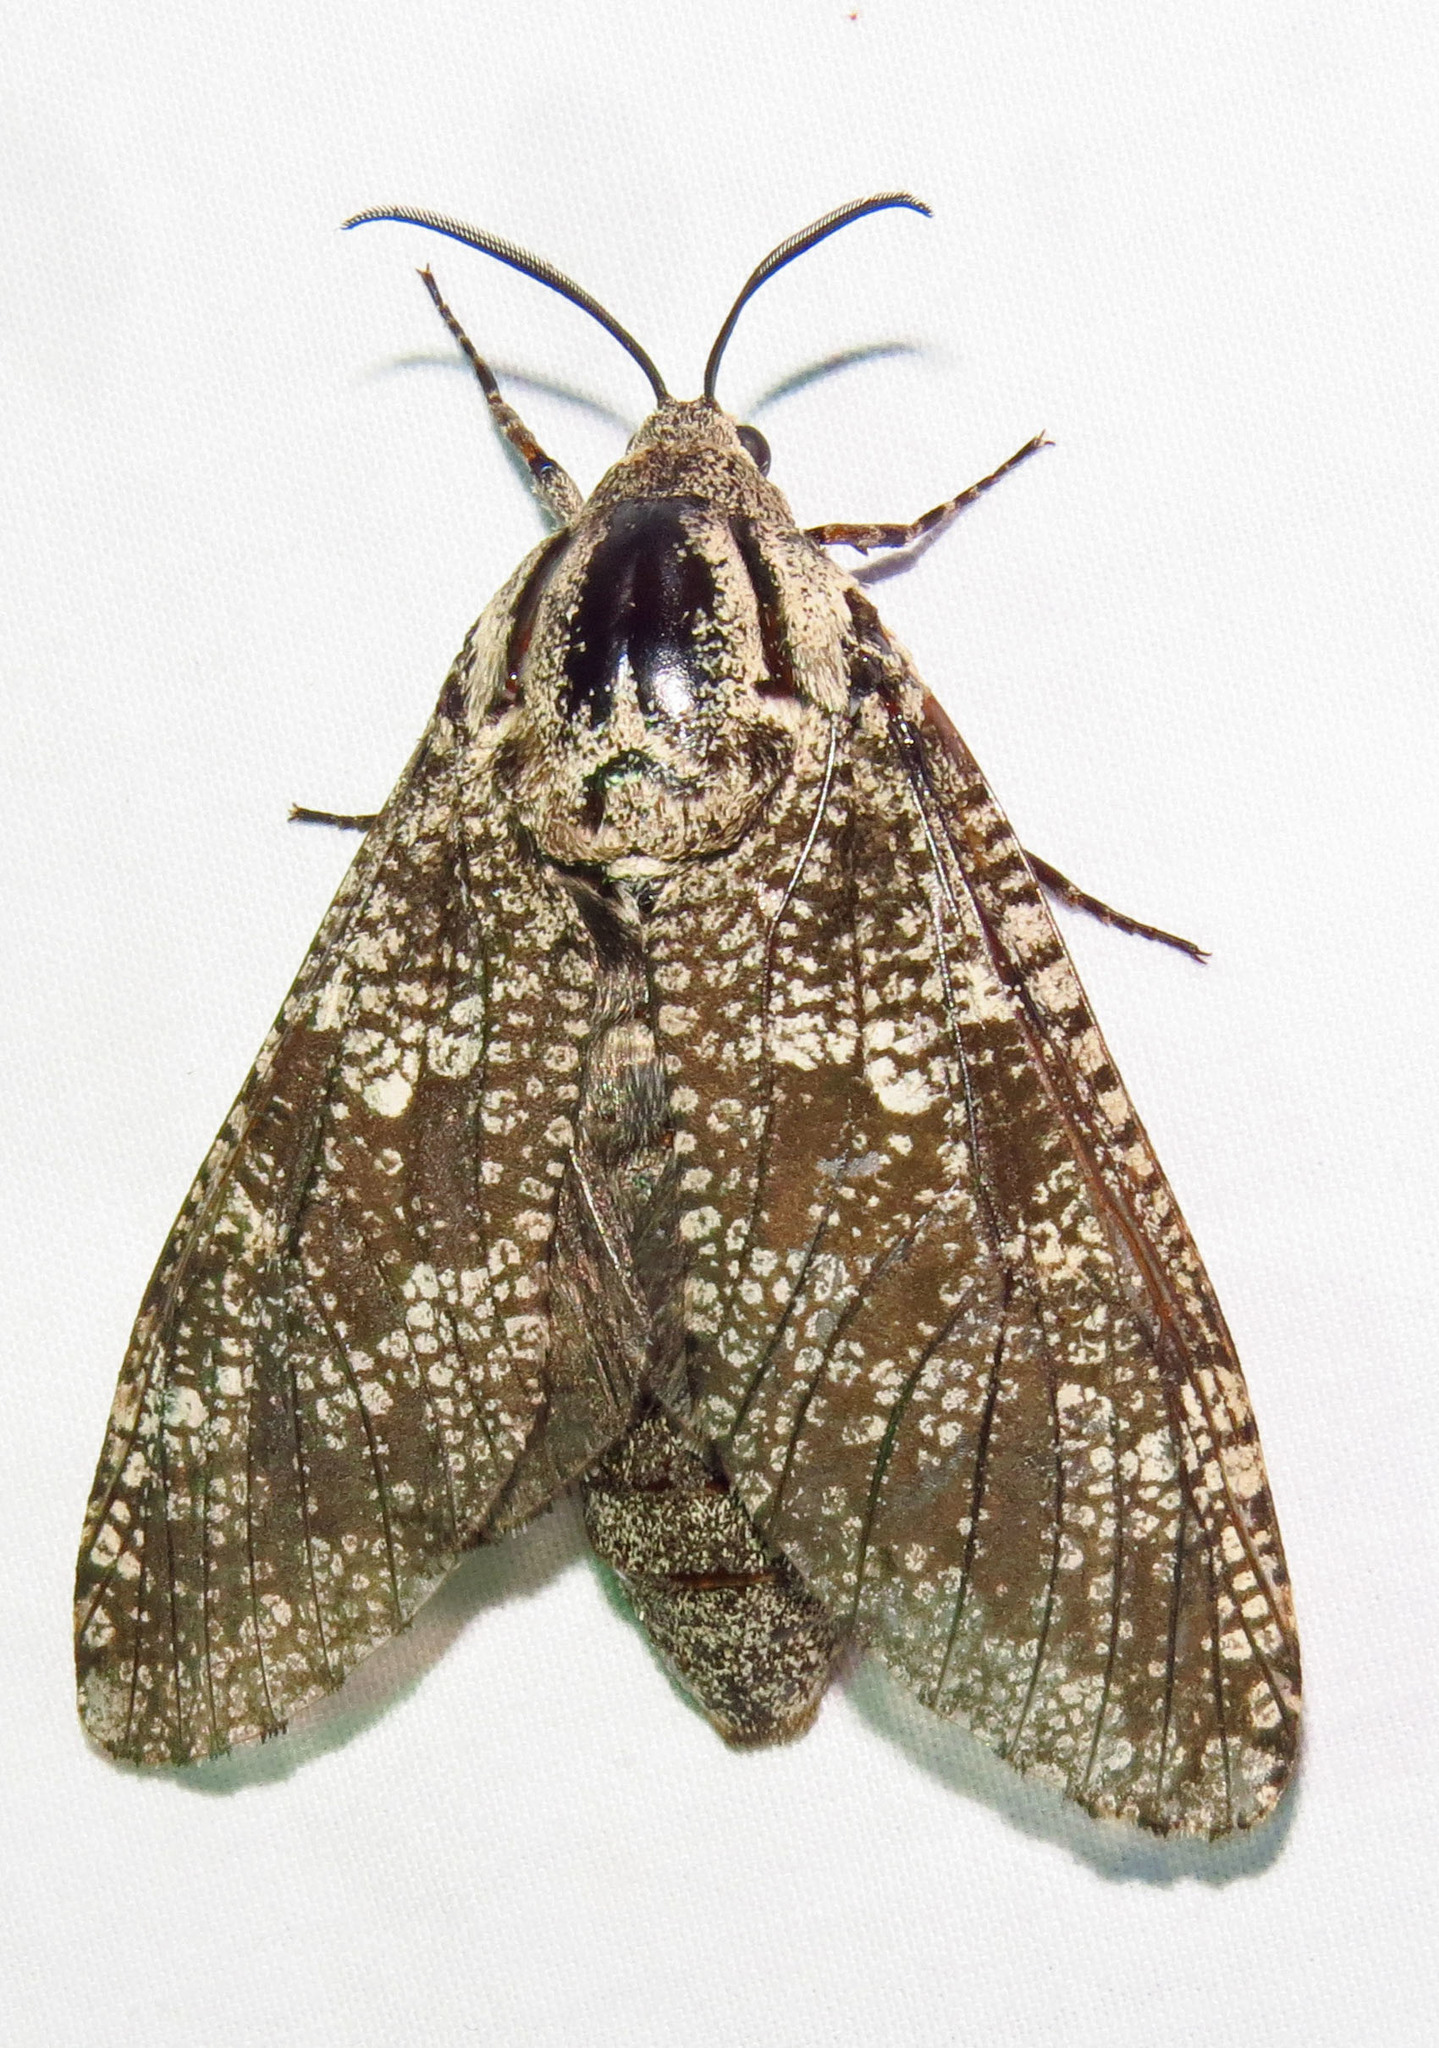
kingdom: Animalia
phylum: Arthropoda
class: Insecta
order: Lepidoptera
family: Cossidae
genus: Prionoxystus
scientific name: Prionoxystus robiniae
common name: Carpenterworm
